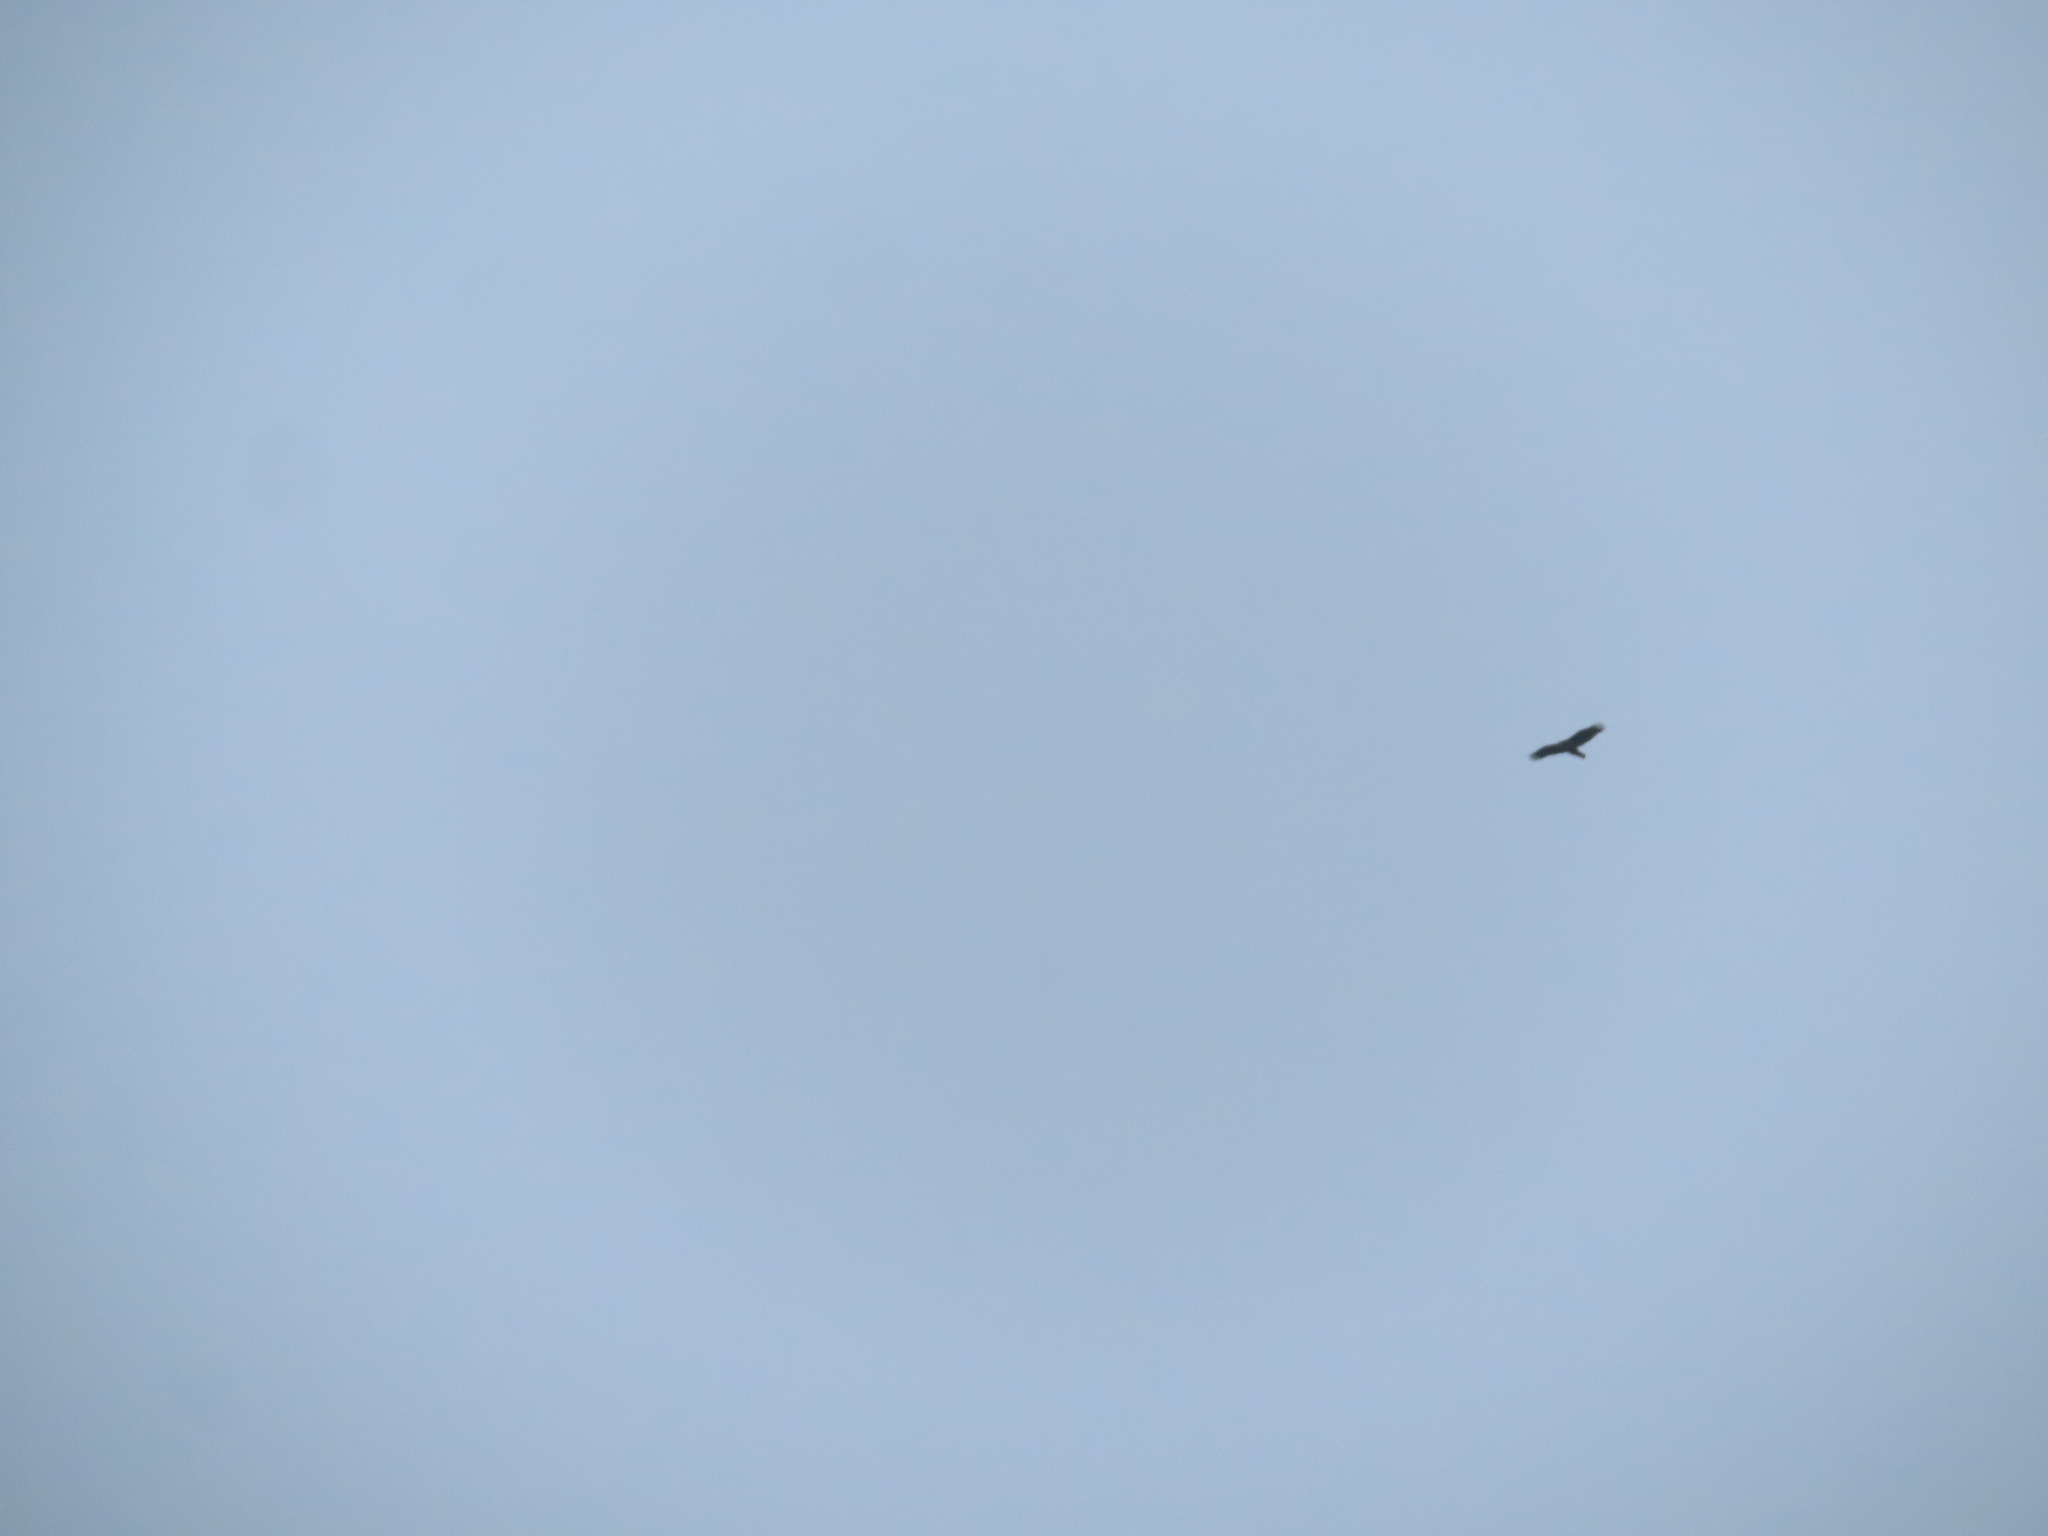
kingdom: Animalia
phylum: Chordata
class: Aves
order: Accipitriformes
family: Cathartidae
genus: Cathartes
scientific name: Cathartes aura
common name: Turkey vulture
